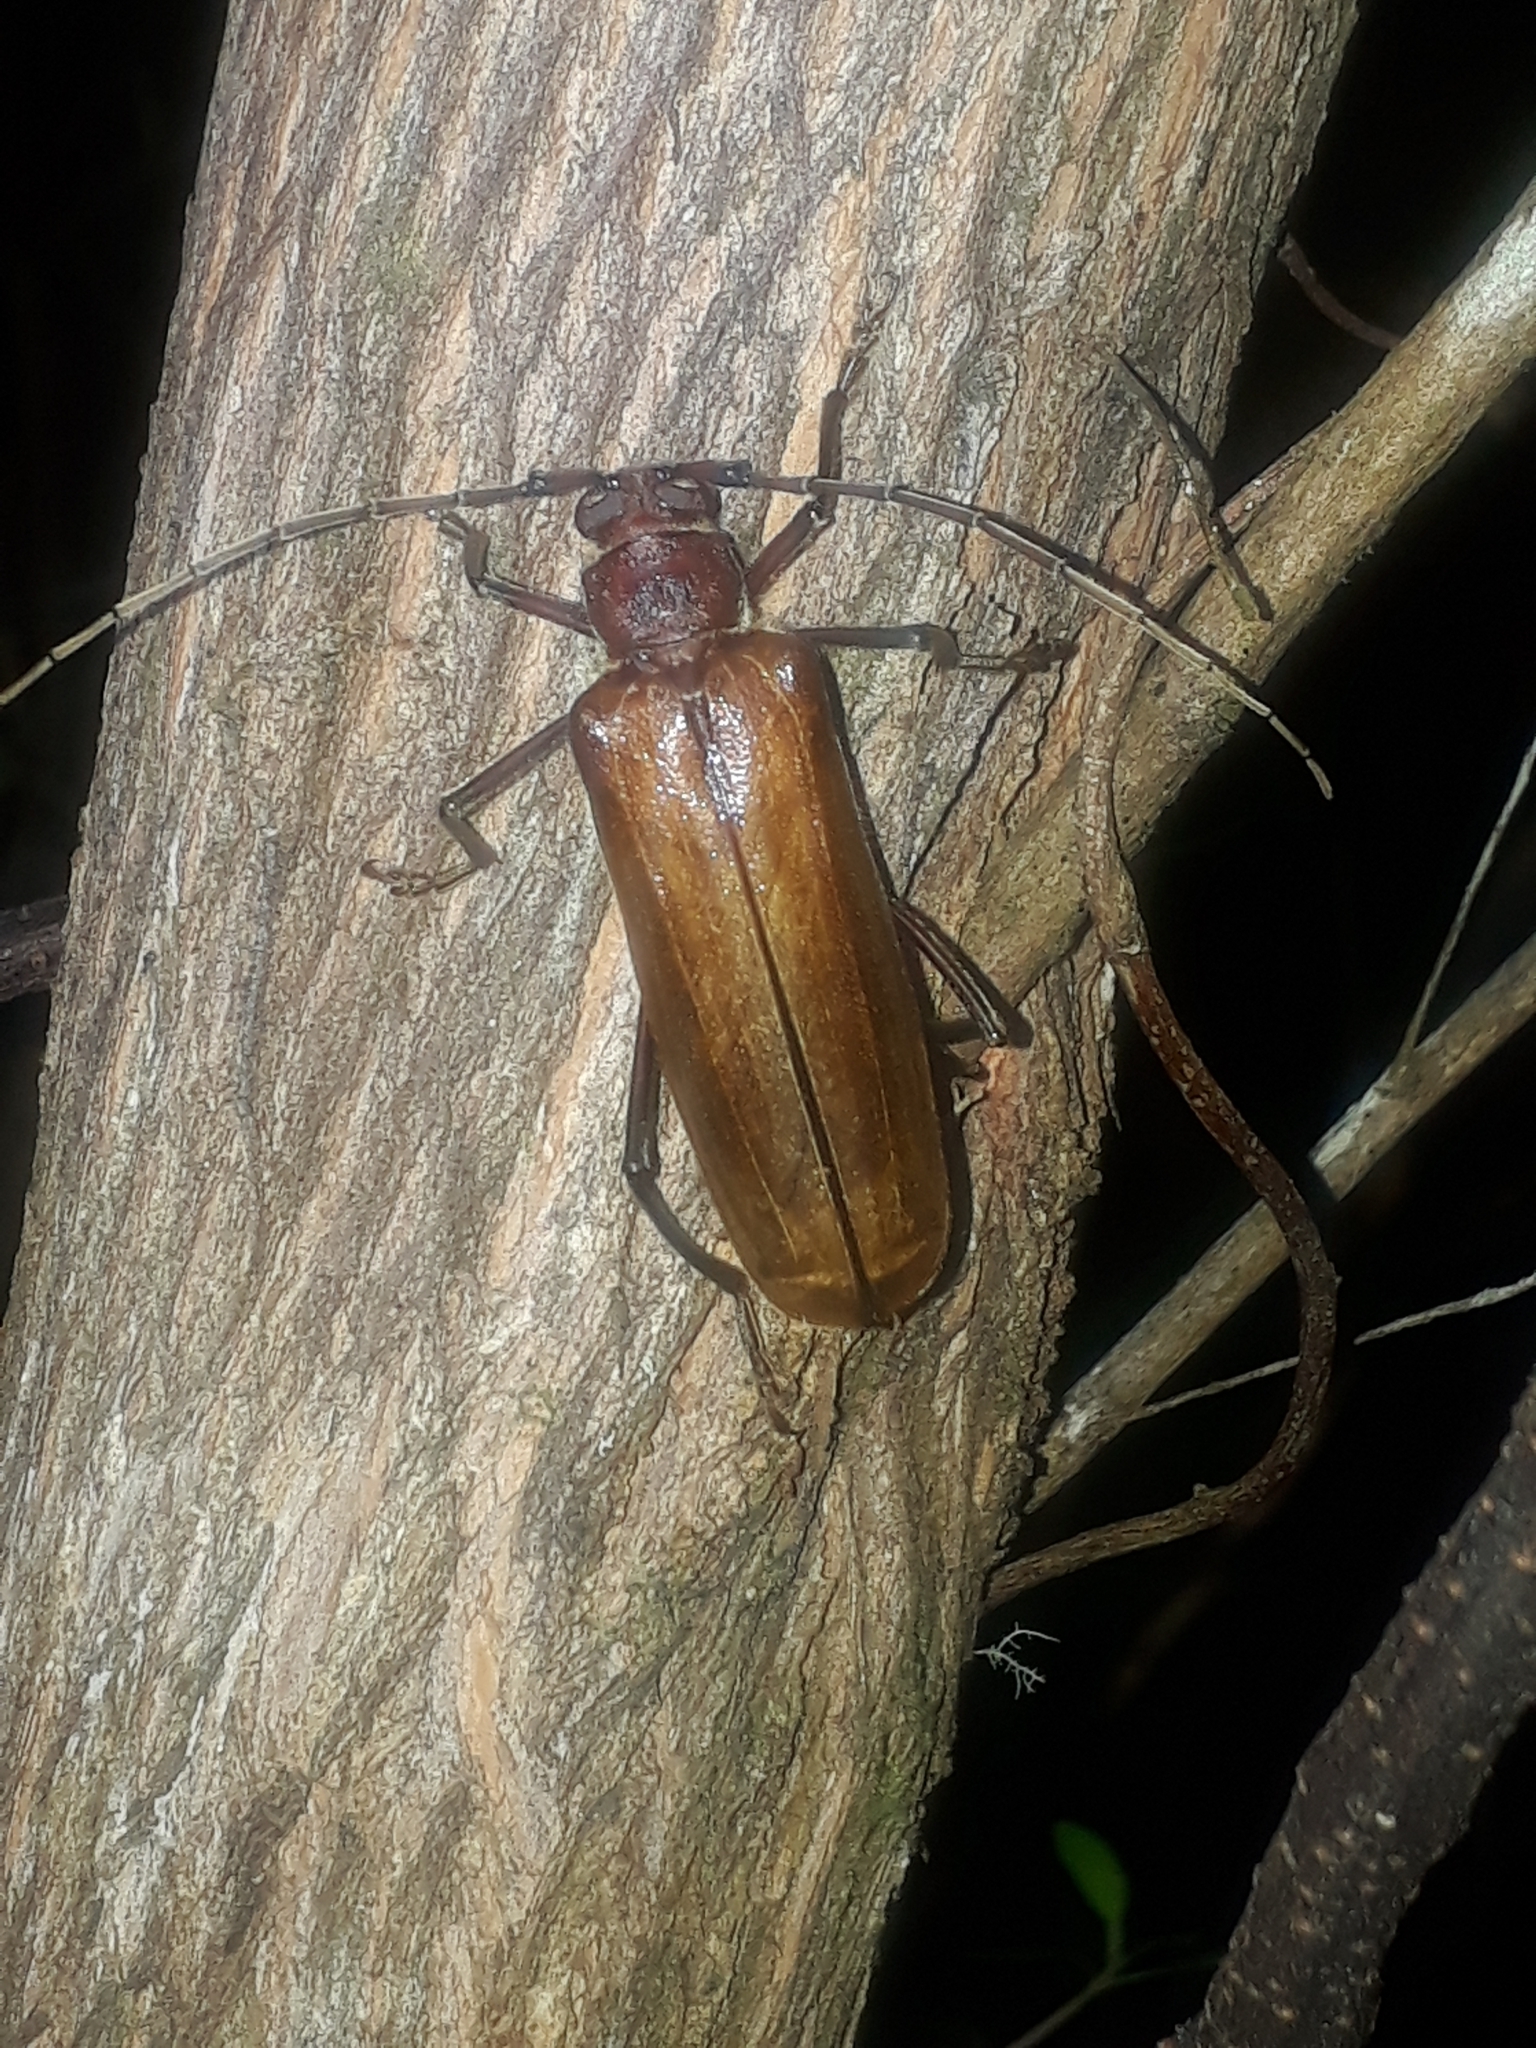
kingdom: Animalia
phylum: Arthropoda
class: Insecta
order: Coleoptera
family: Cerambycidae
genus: Ochrocydus
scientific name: Ochrocydus huttoni
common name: Kanuka longhorn
